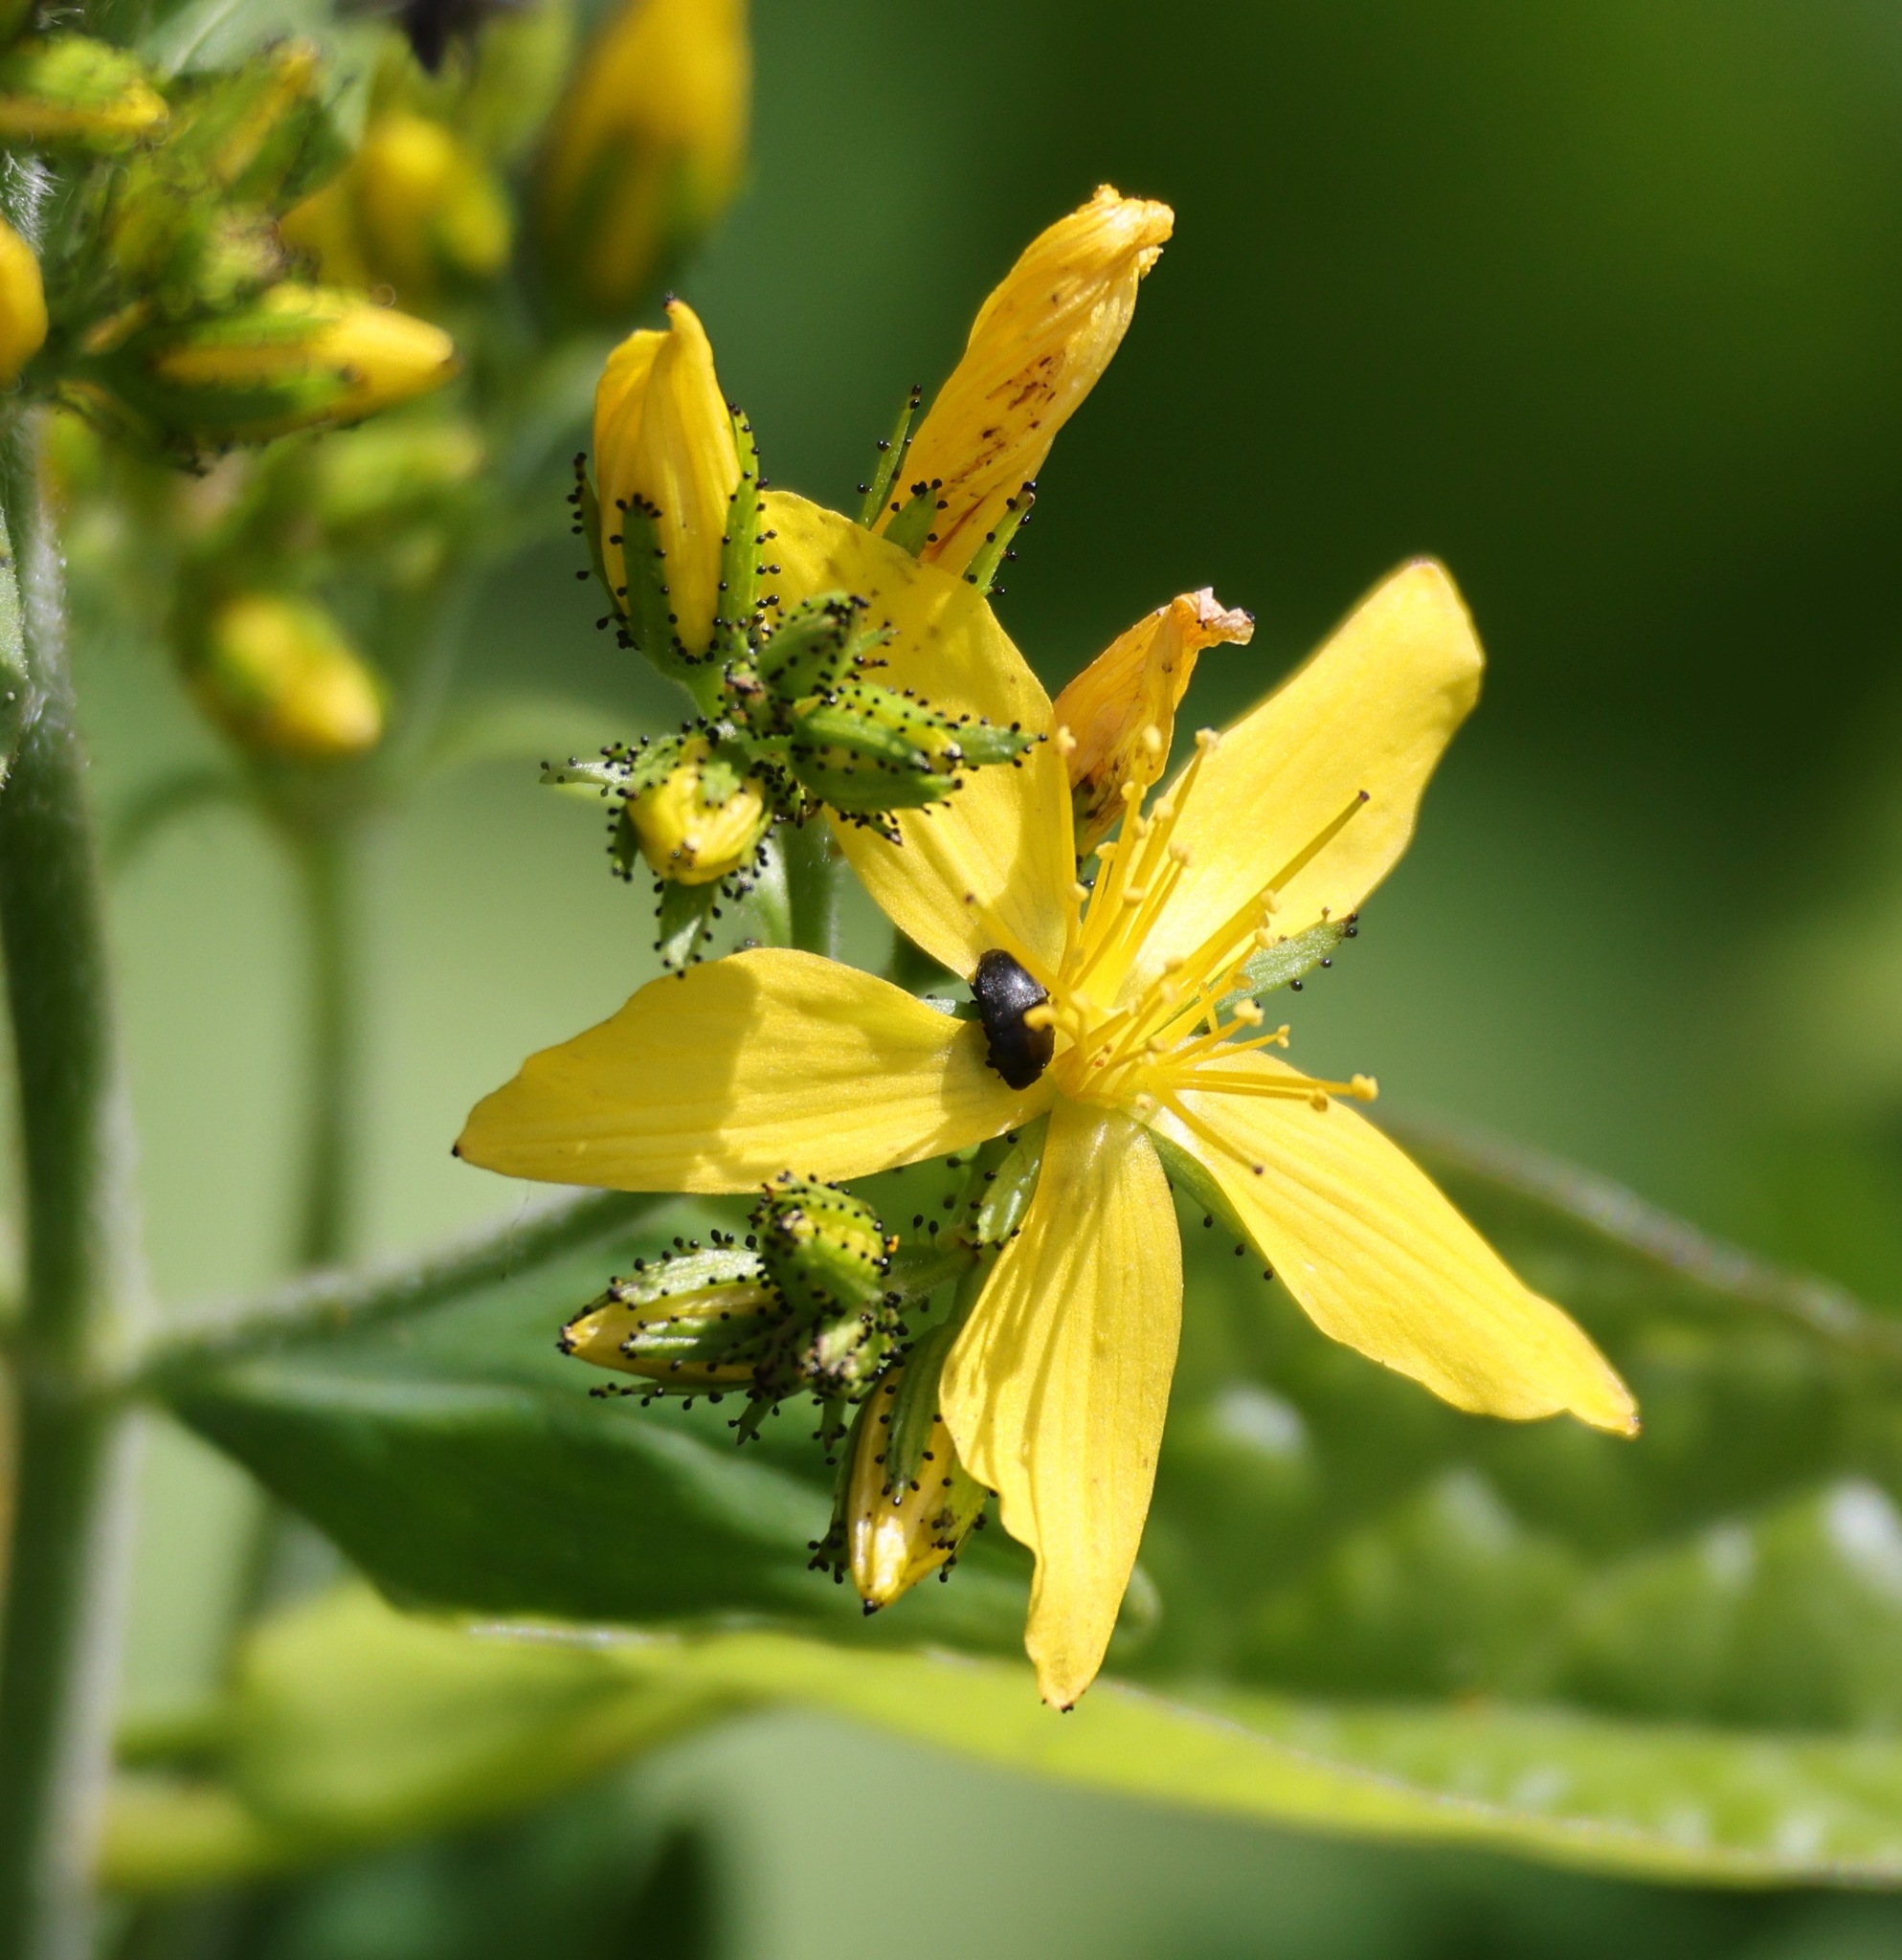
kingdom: Plantae
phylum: Tracheophyta
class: Magnoliopsida
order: Malpighiales
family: Hypericaceae
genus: Hypericum
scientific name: Hypericum hirsutum
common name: Hairy st. john's-wort
